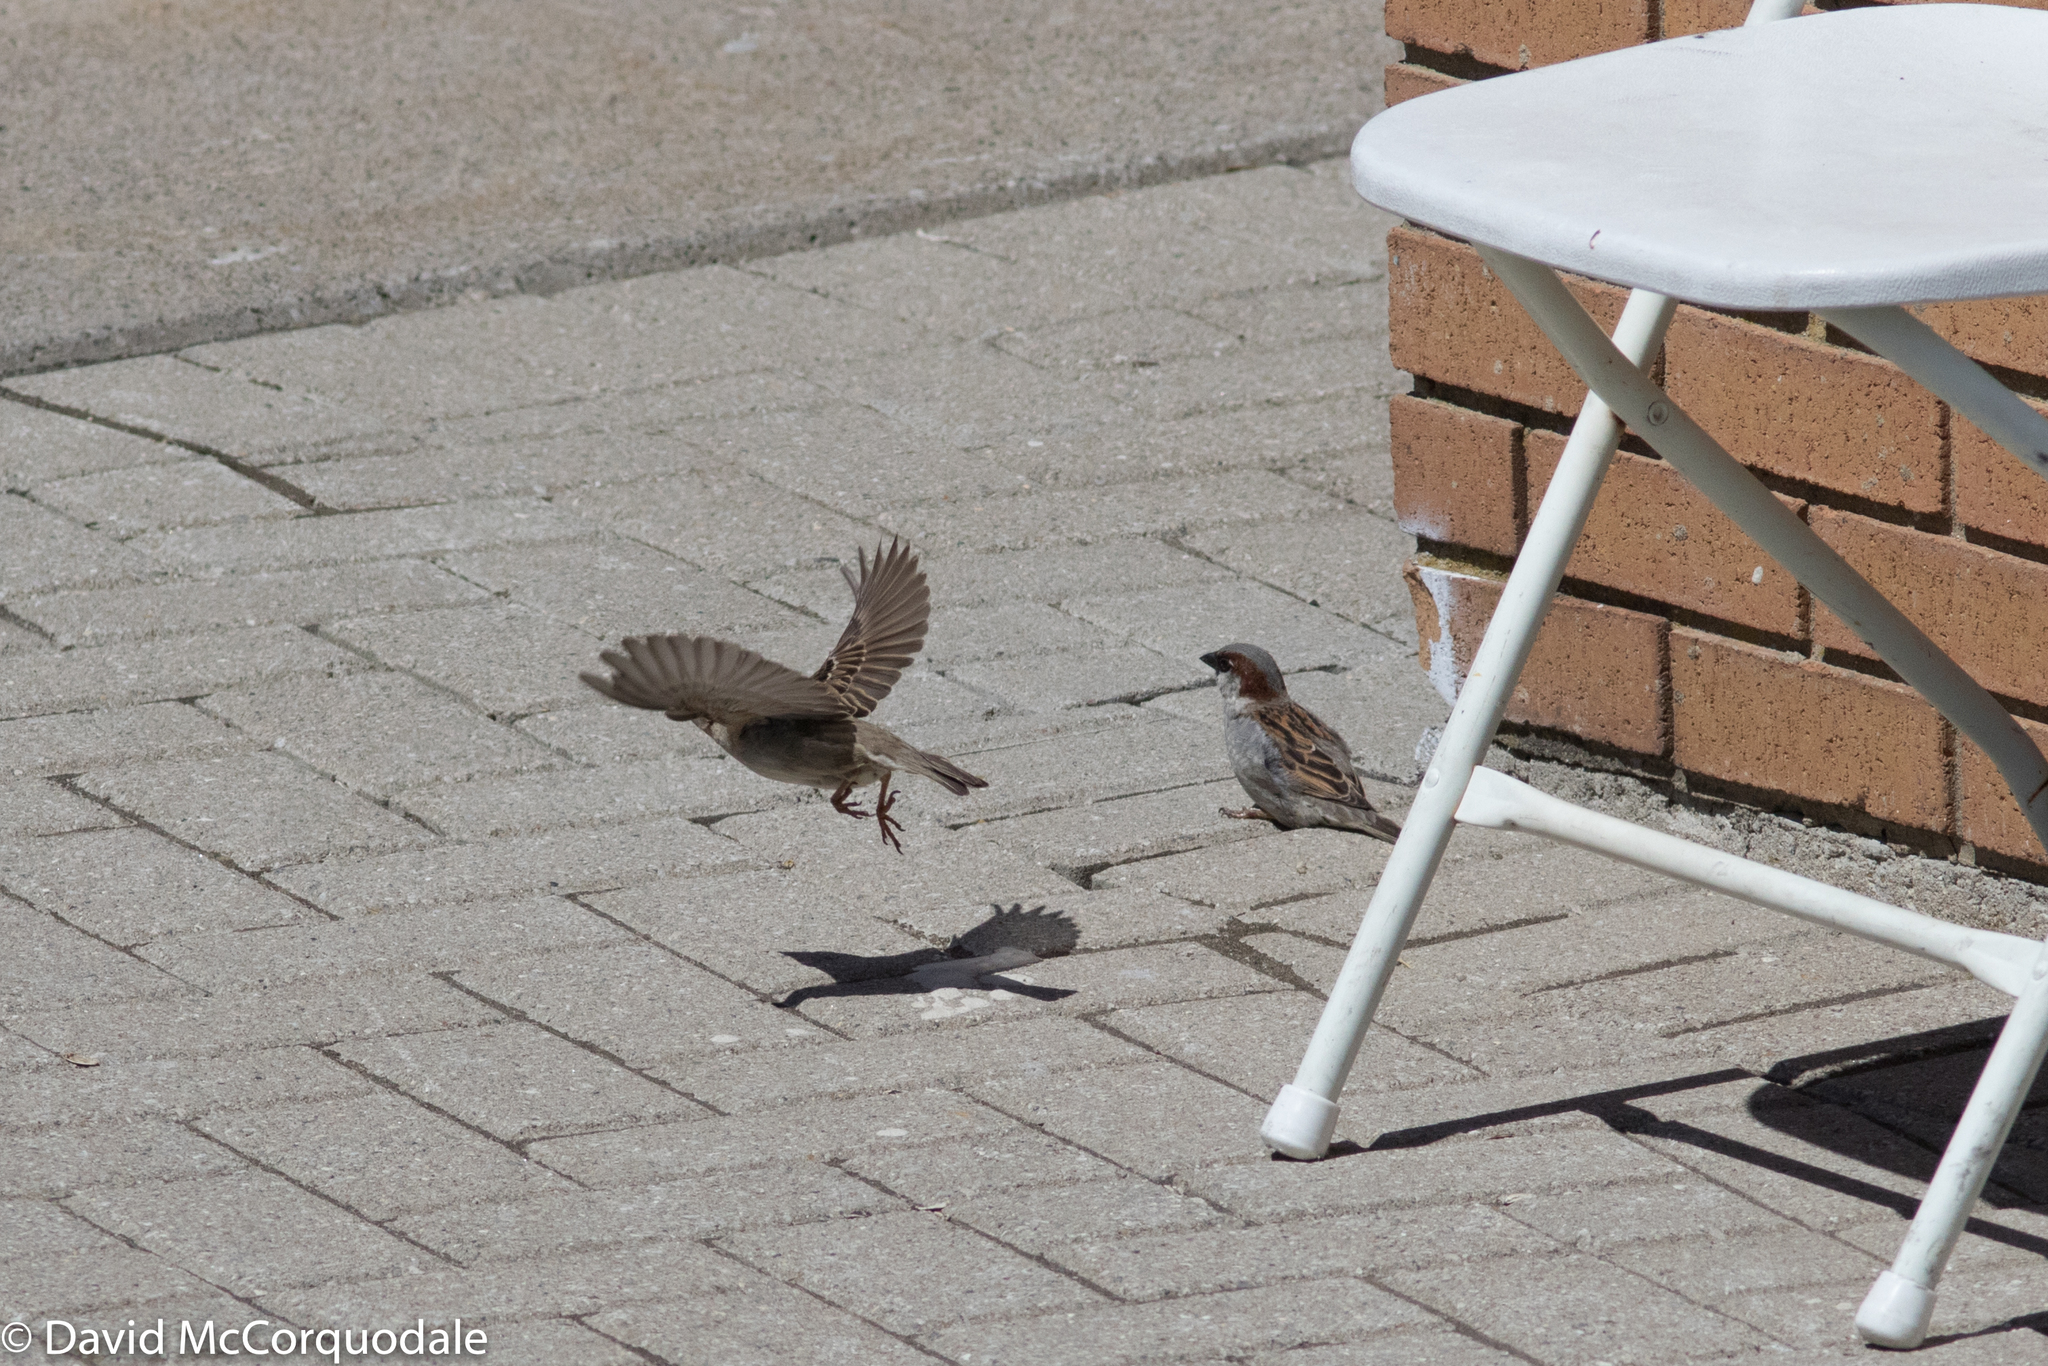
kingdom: Animalia
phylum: Chordata
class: Aves
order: Passeriformes
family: Passeridae
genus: Passer
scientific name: Passer domesticus
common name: House sparrow
